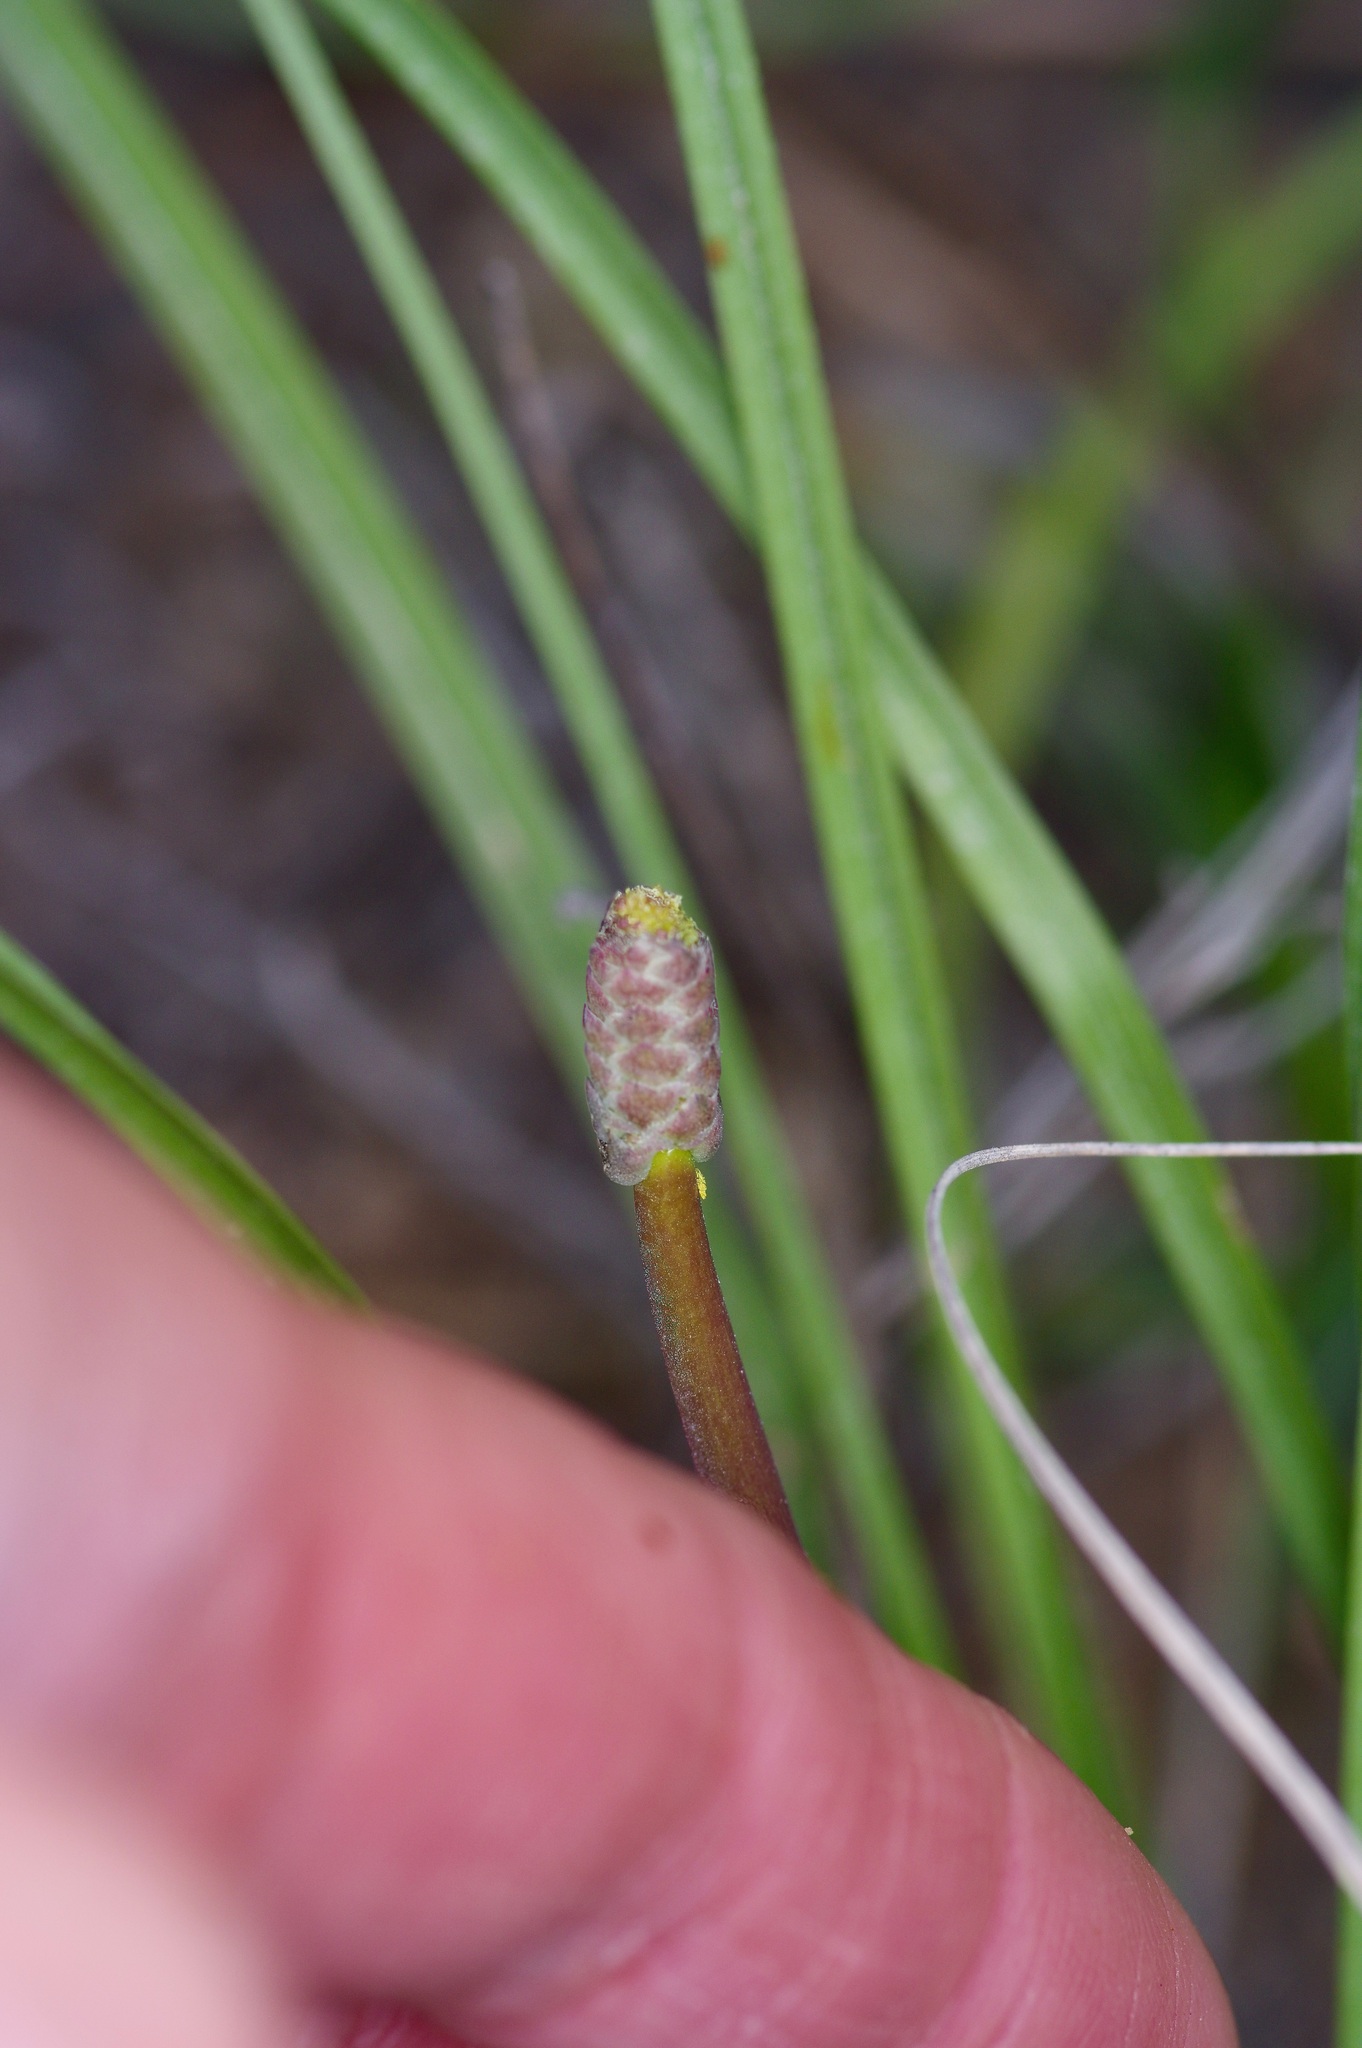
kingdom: Plantae
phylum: Tracheophyta
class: Liliopsida
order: Liliales
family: Melanthiaceae
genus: Schoenocaulon
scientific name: Schoenocaulon texanum
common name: Texas feather-shank
